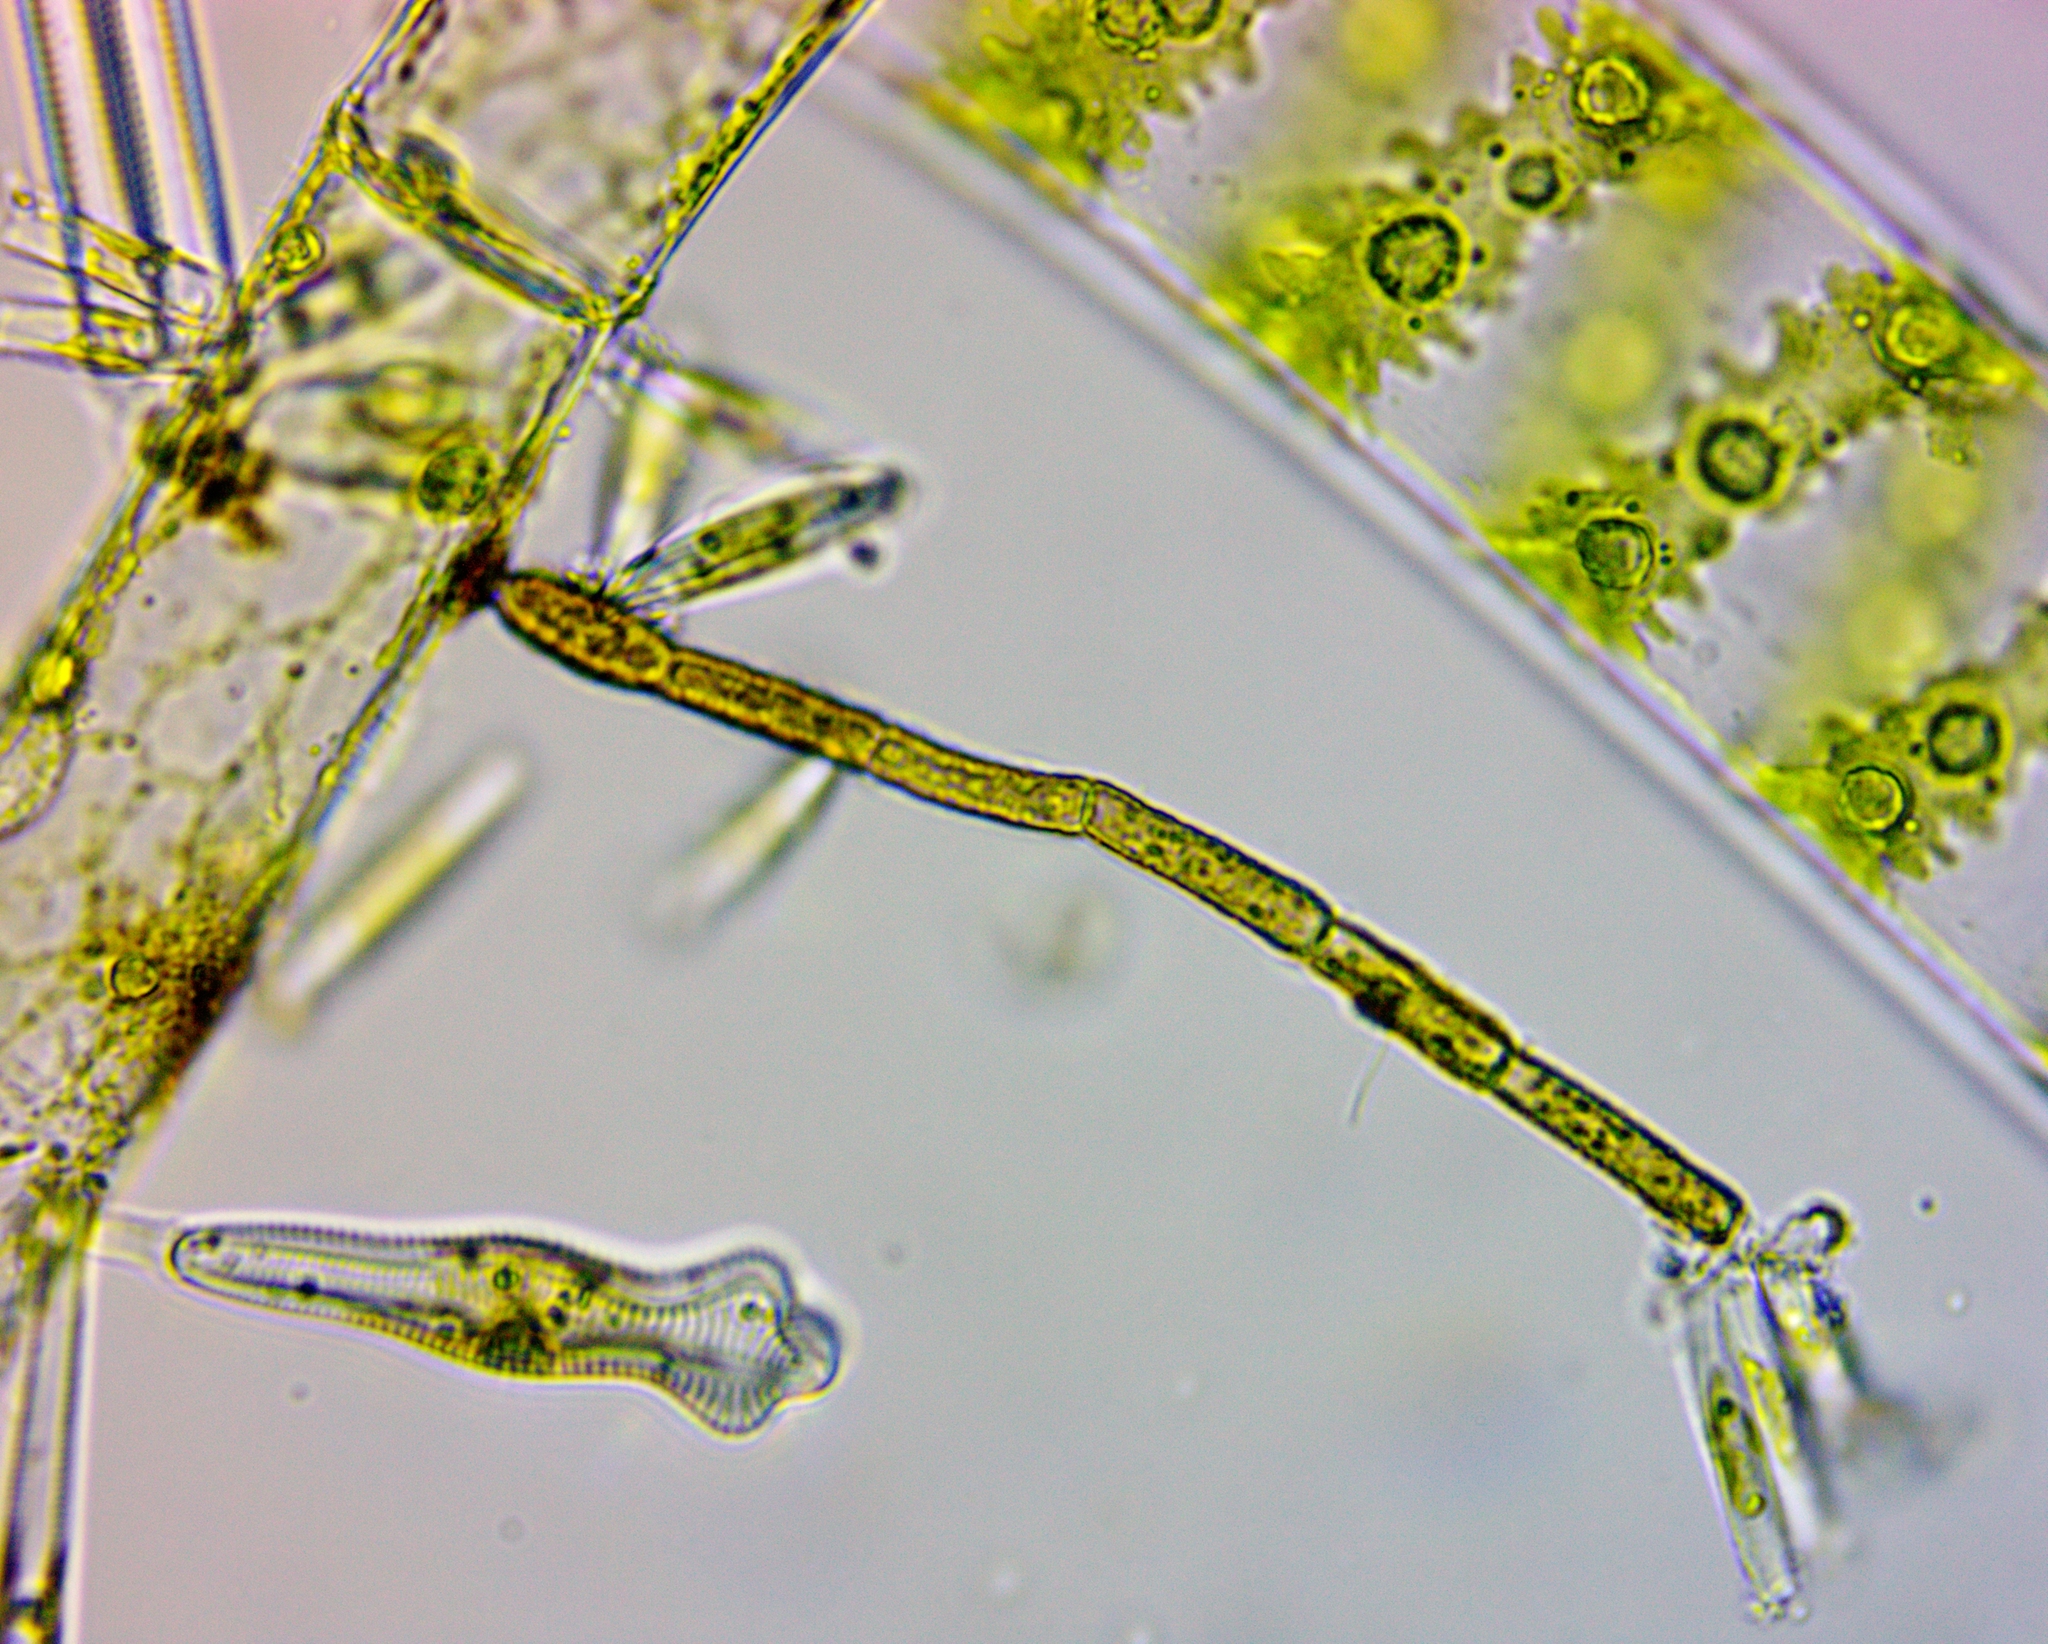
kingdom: Plantae
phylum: Chlorophyta
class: Chlorophyceae
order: Oedogoniales
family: Oedogoniaceae
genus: Oedogonium
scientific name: Oedogonium
